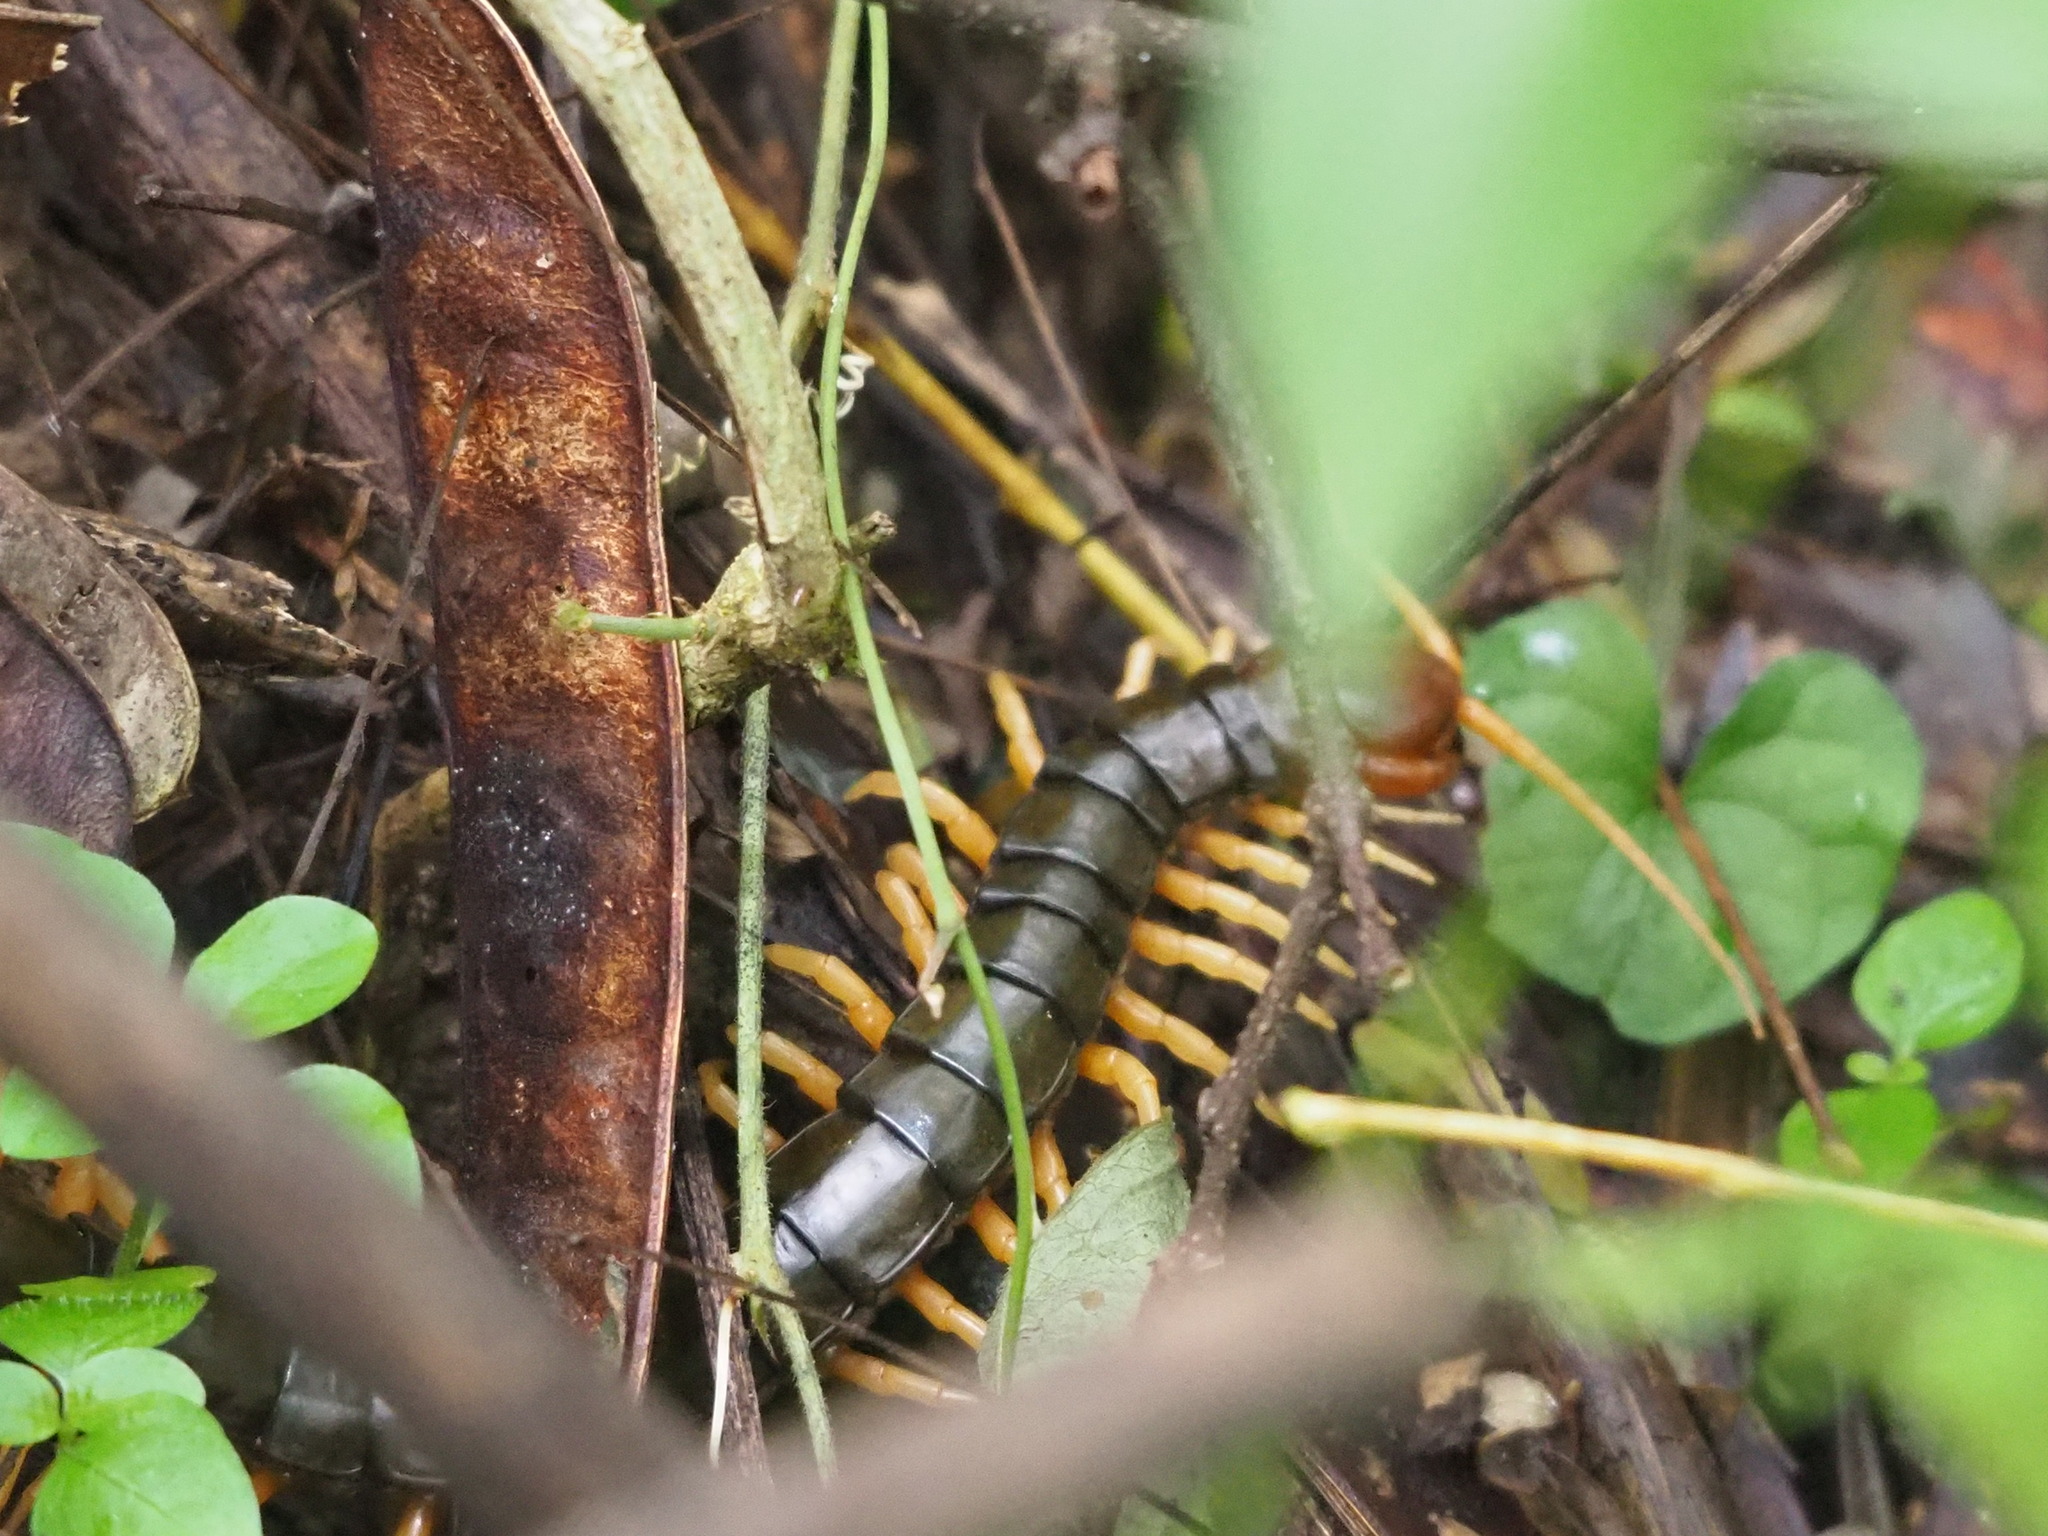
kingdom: Animalia
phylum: Arthropoda
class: Chilopoda
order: Scolopendromorpha
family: Scolopendridae
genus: Scolopendra
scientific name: Scolopendra mutilans
